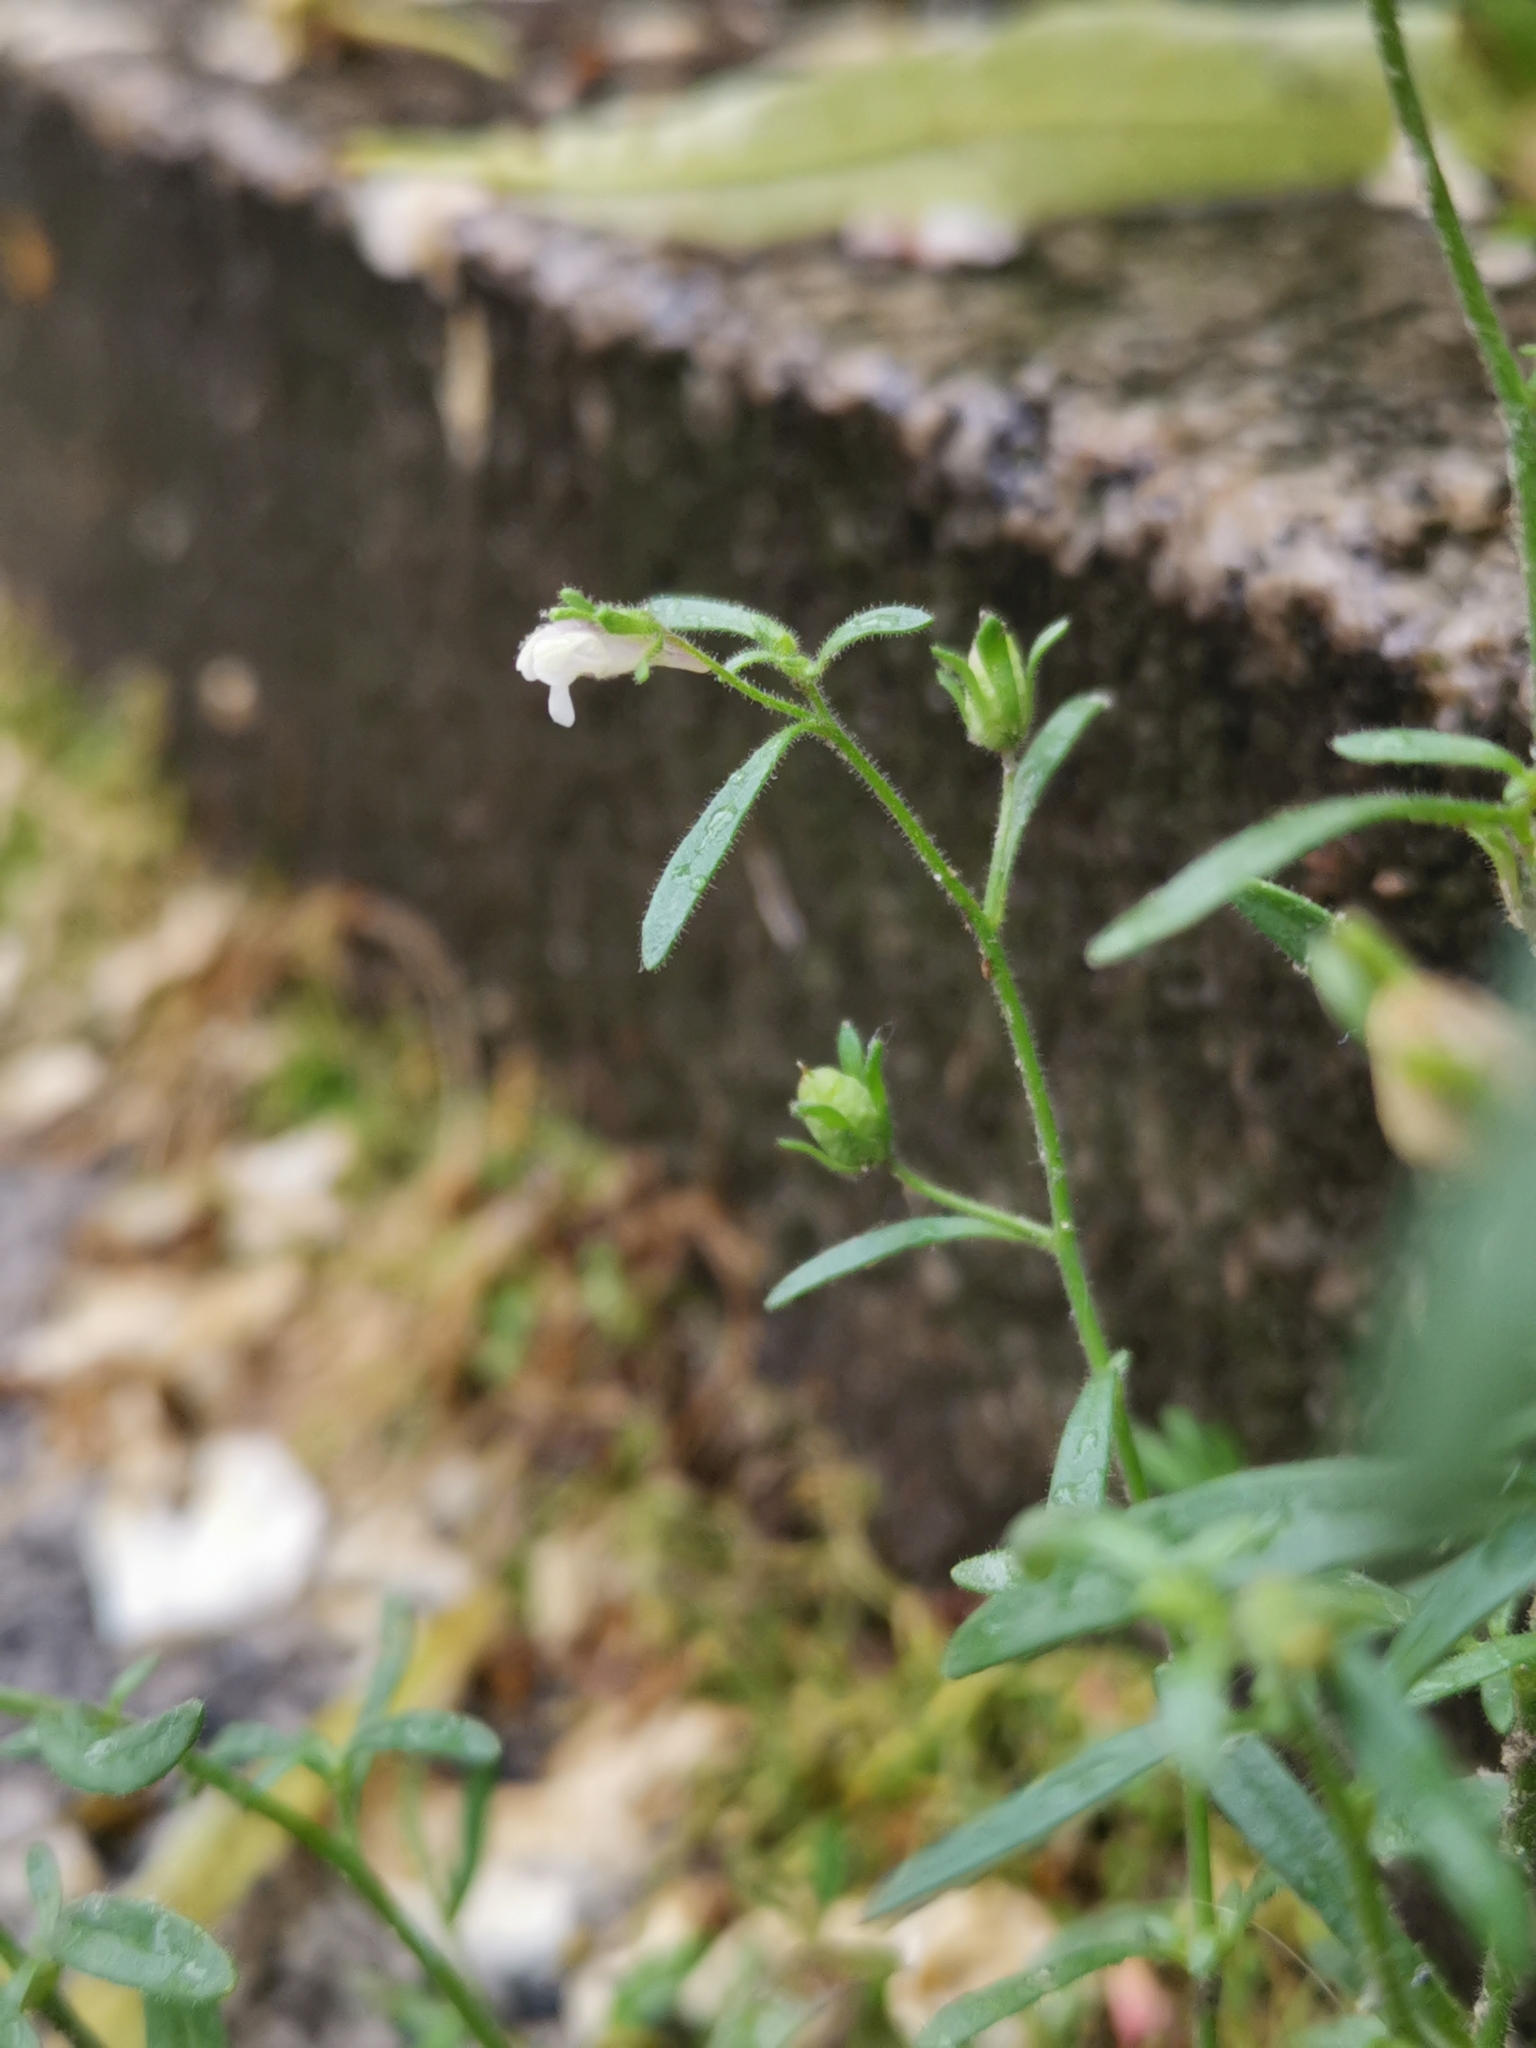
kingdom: Plantae
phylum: Tracheophyta
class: Magnoliopsida
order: Lamiales
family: Plantaginaceae
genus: Chaenorhinum
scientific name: Chaenorhinum minus
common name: Dwarf snapdragon
